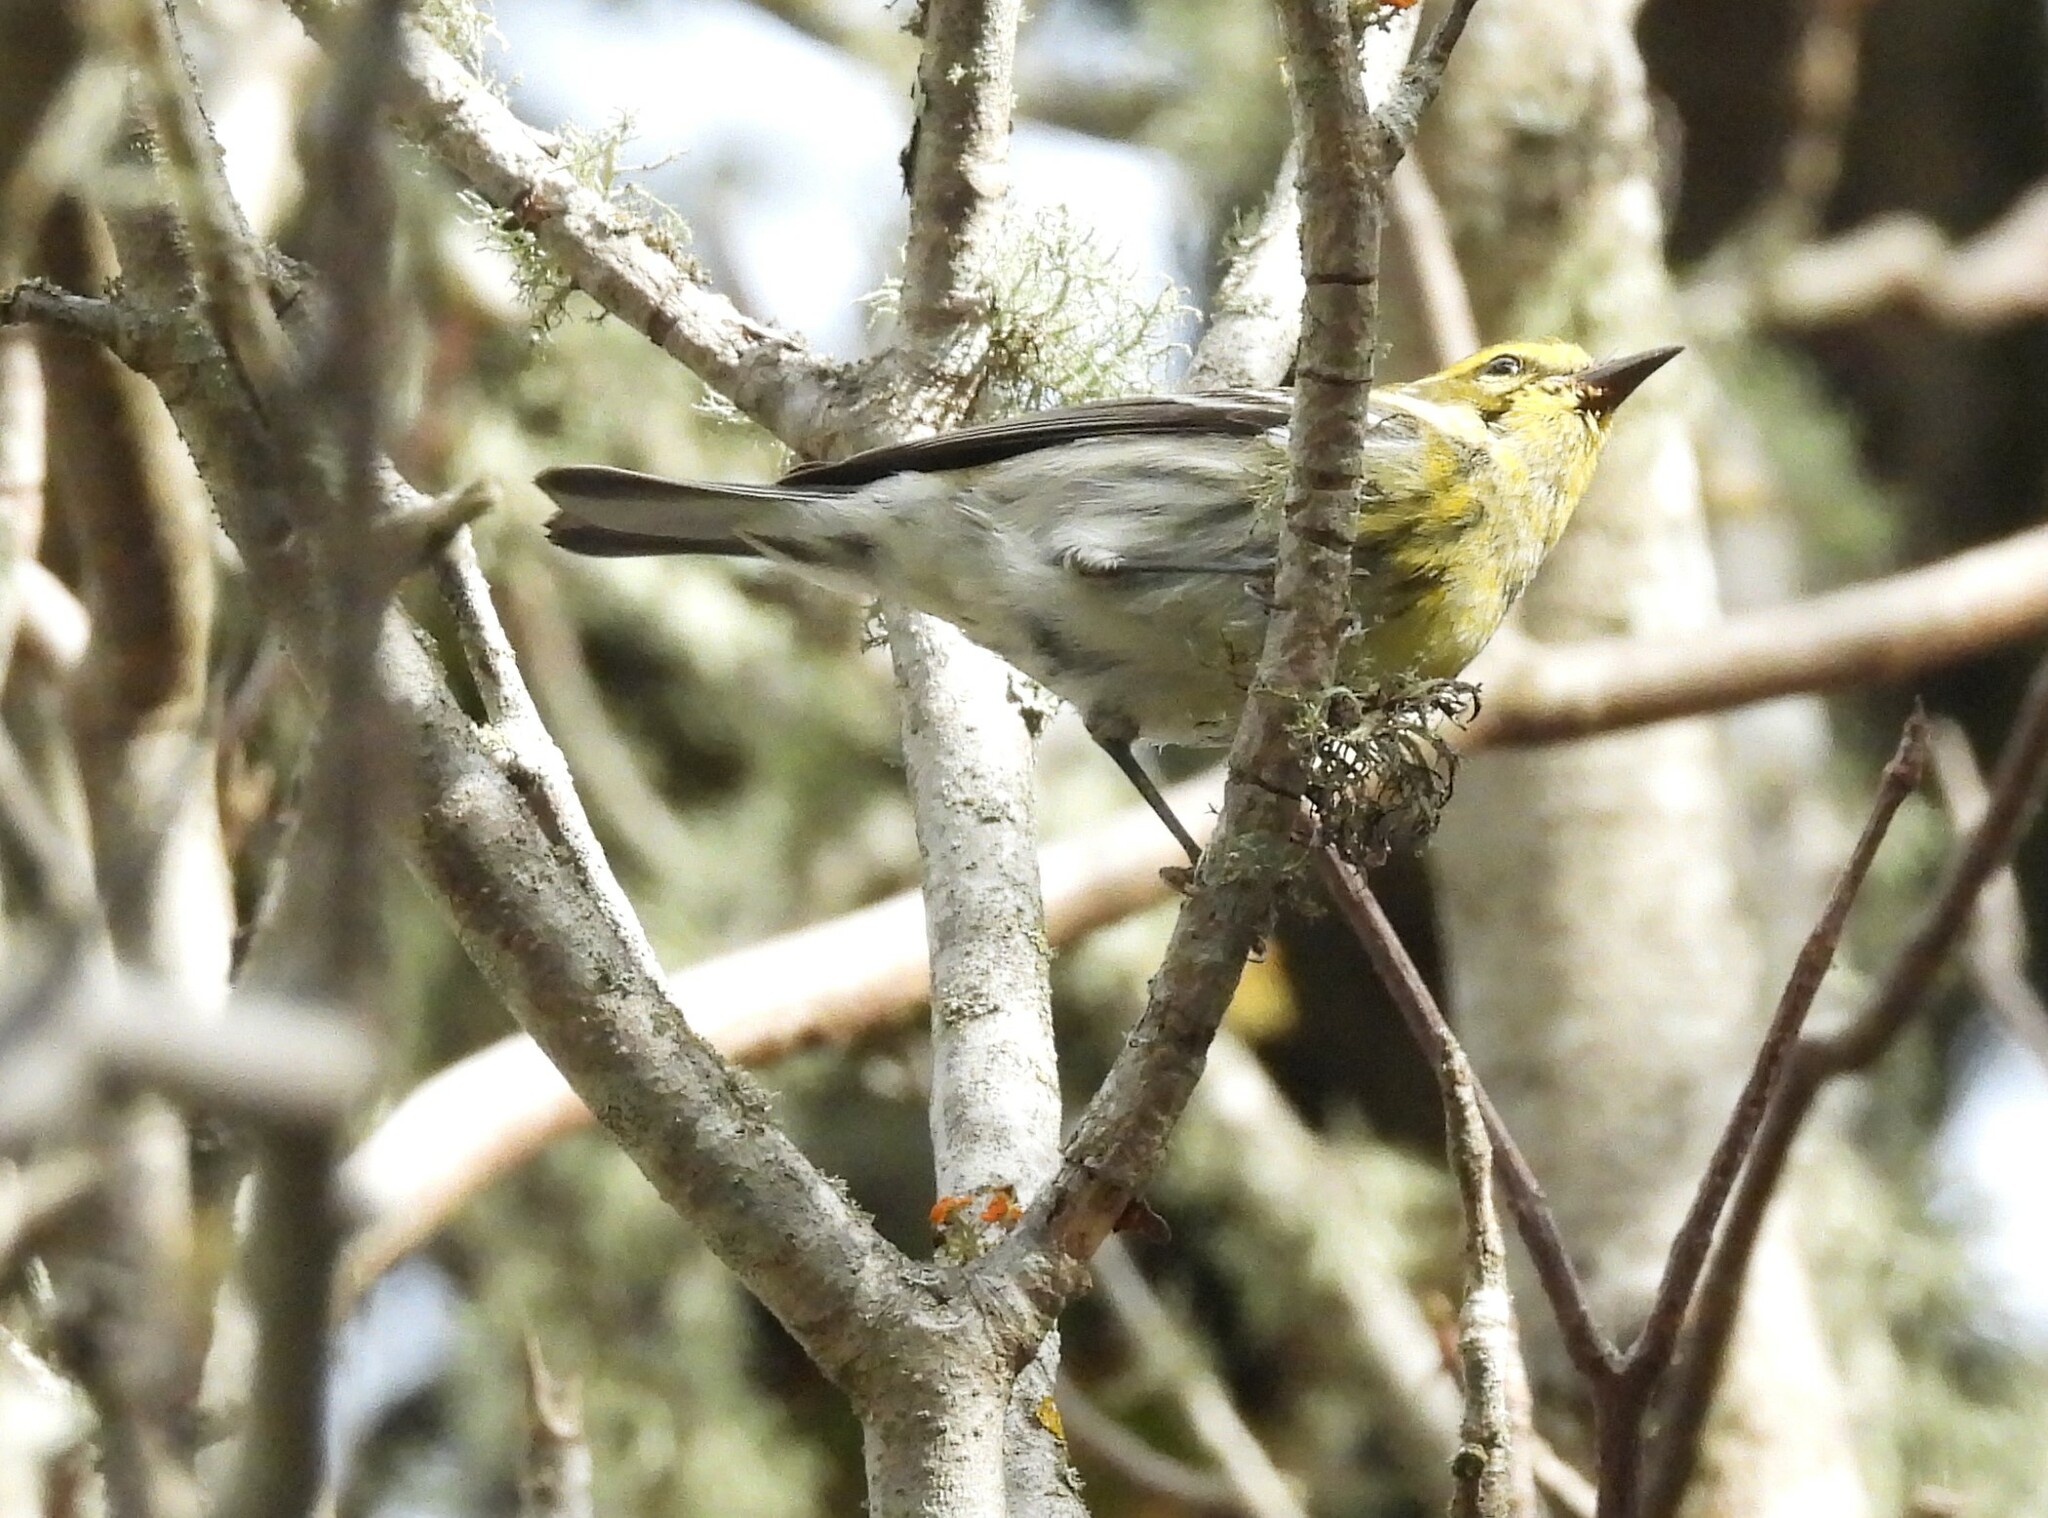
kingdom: Animalia
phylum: Chordata
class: Aves
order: Passeriformes
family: Parulidae
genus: Setophaga
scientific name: Setophaga townsendi
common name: Townsend's warbler
